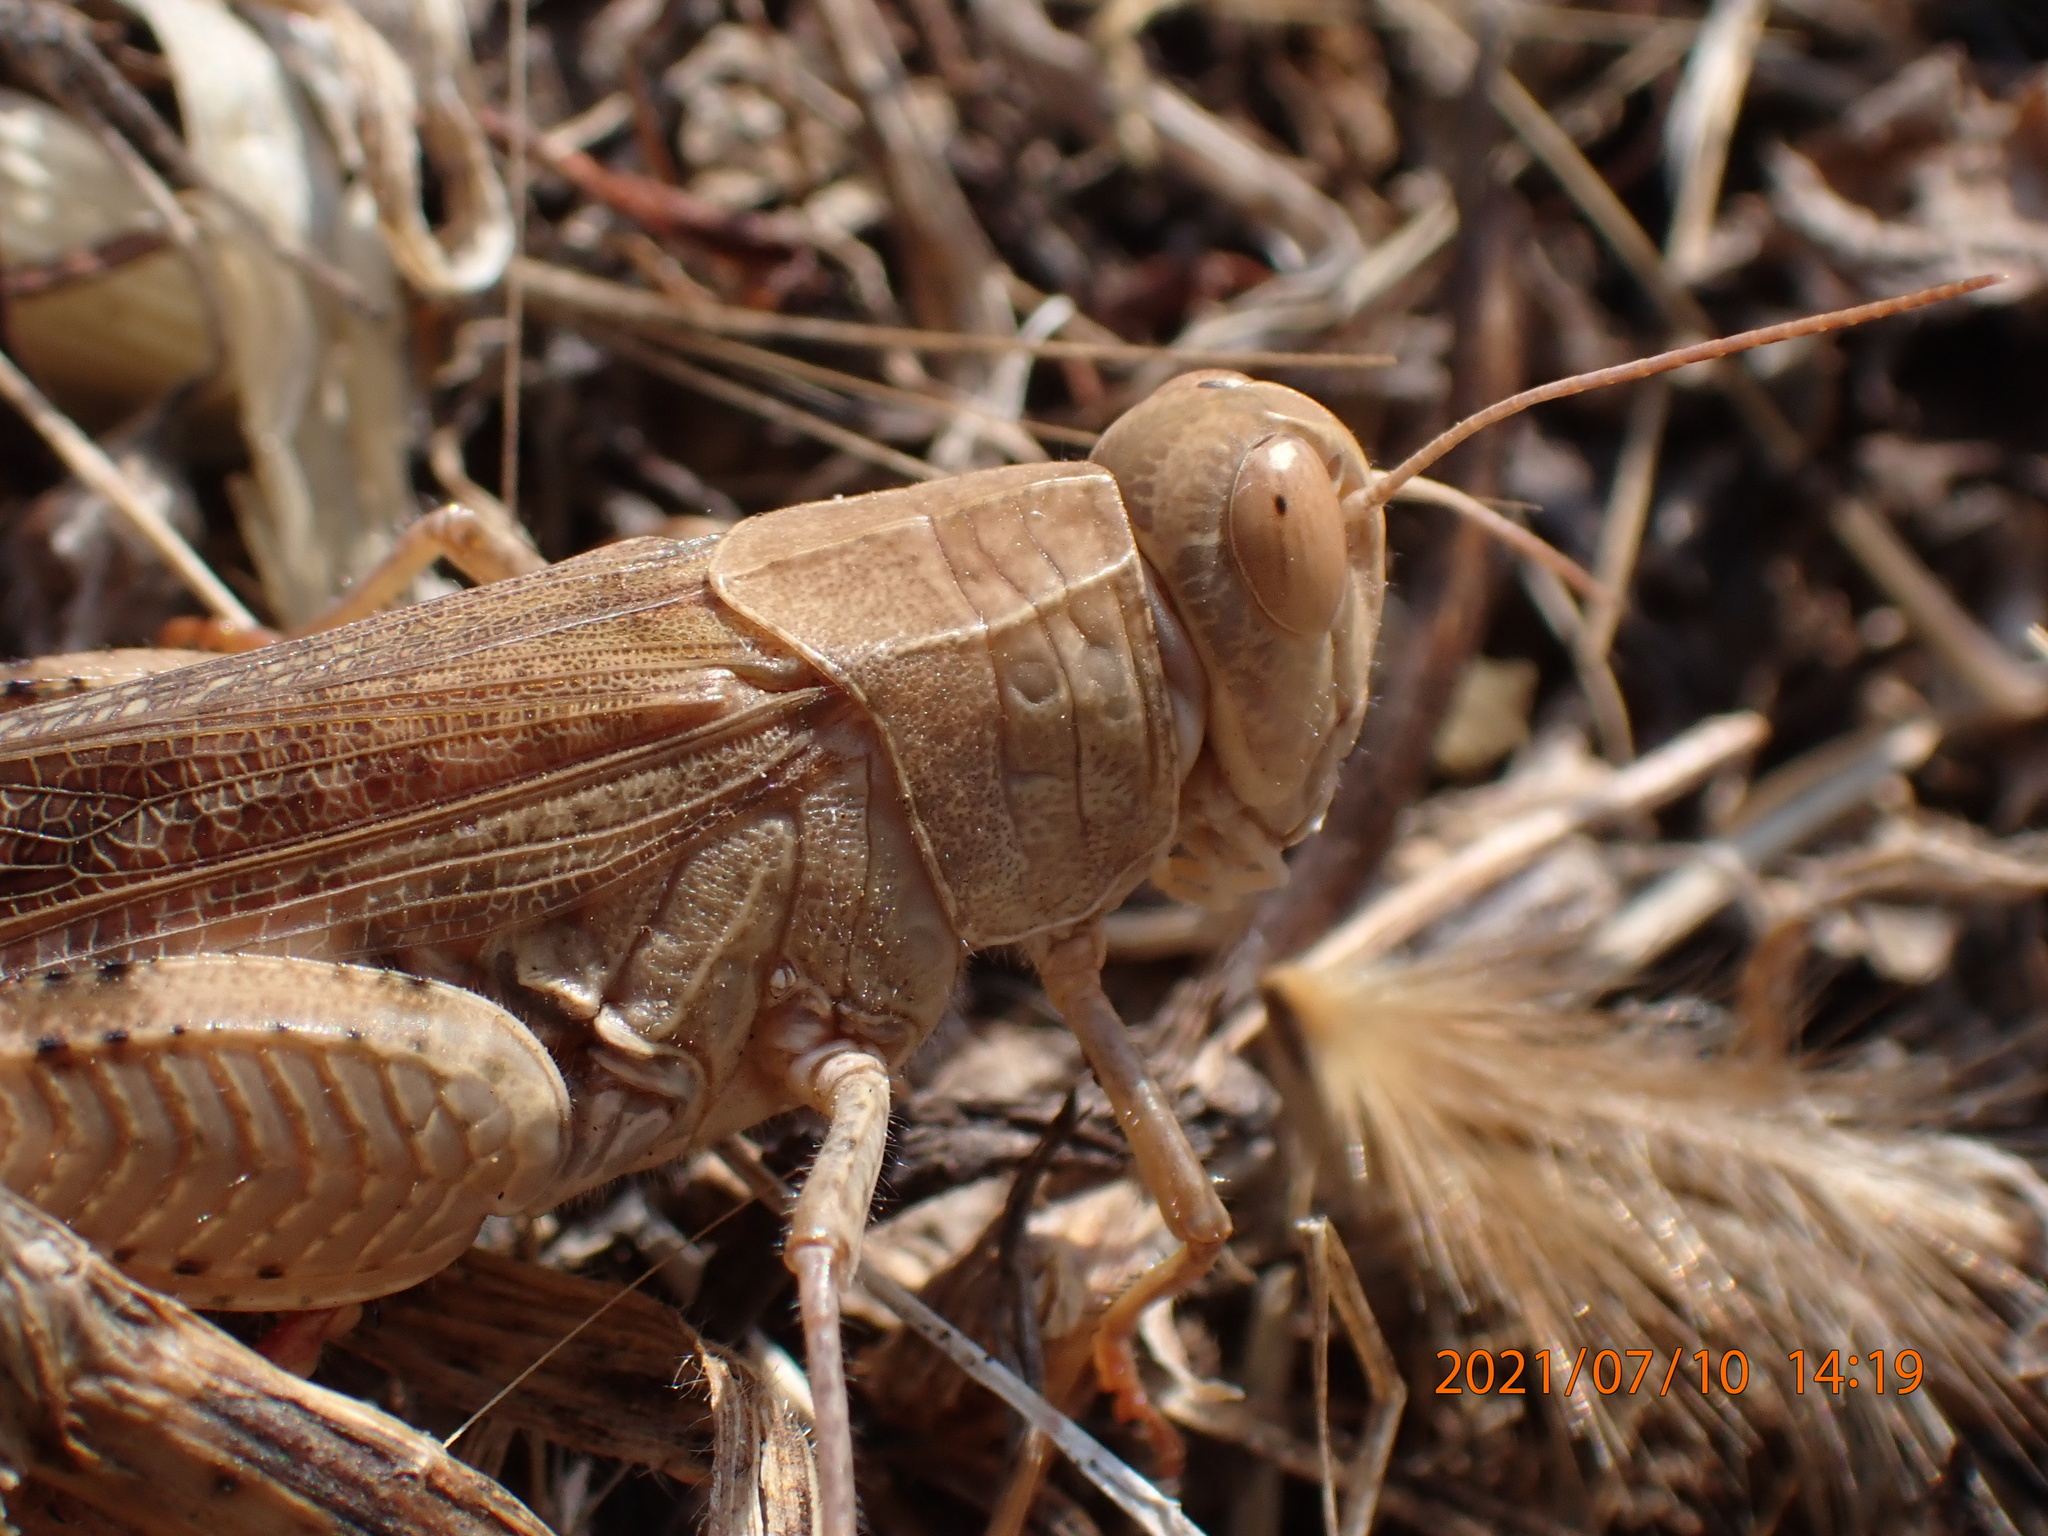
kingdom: Animalia
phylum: Arthropoda
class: Insecta
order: Orthoptera
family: Acrididae
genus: Calliptamus
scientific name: Calliptamus italicus
